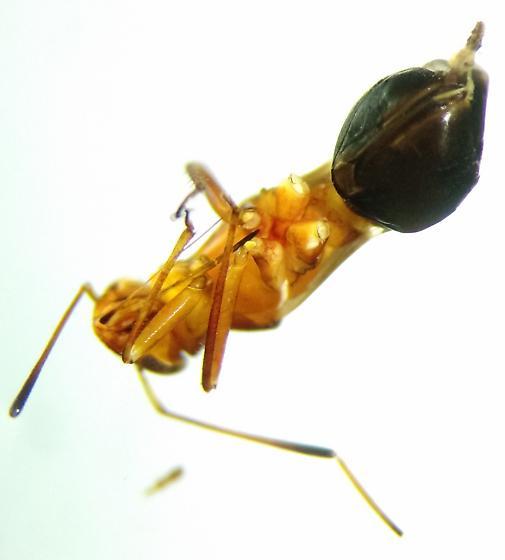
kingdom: Animalia
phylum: Arthropoda
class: Insecta
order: Hemiptera
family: Miridae
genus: Barberiella
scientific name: Barberiella formicoides
